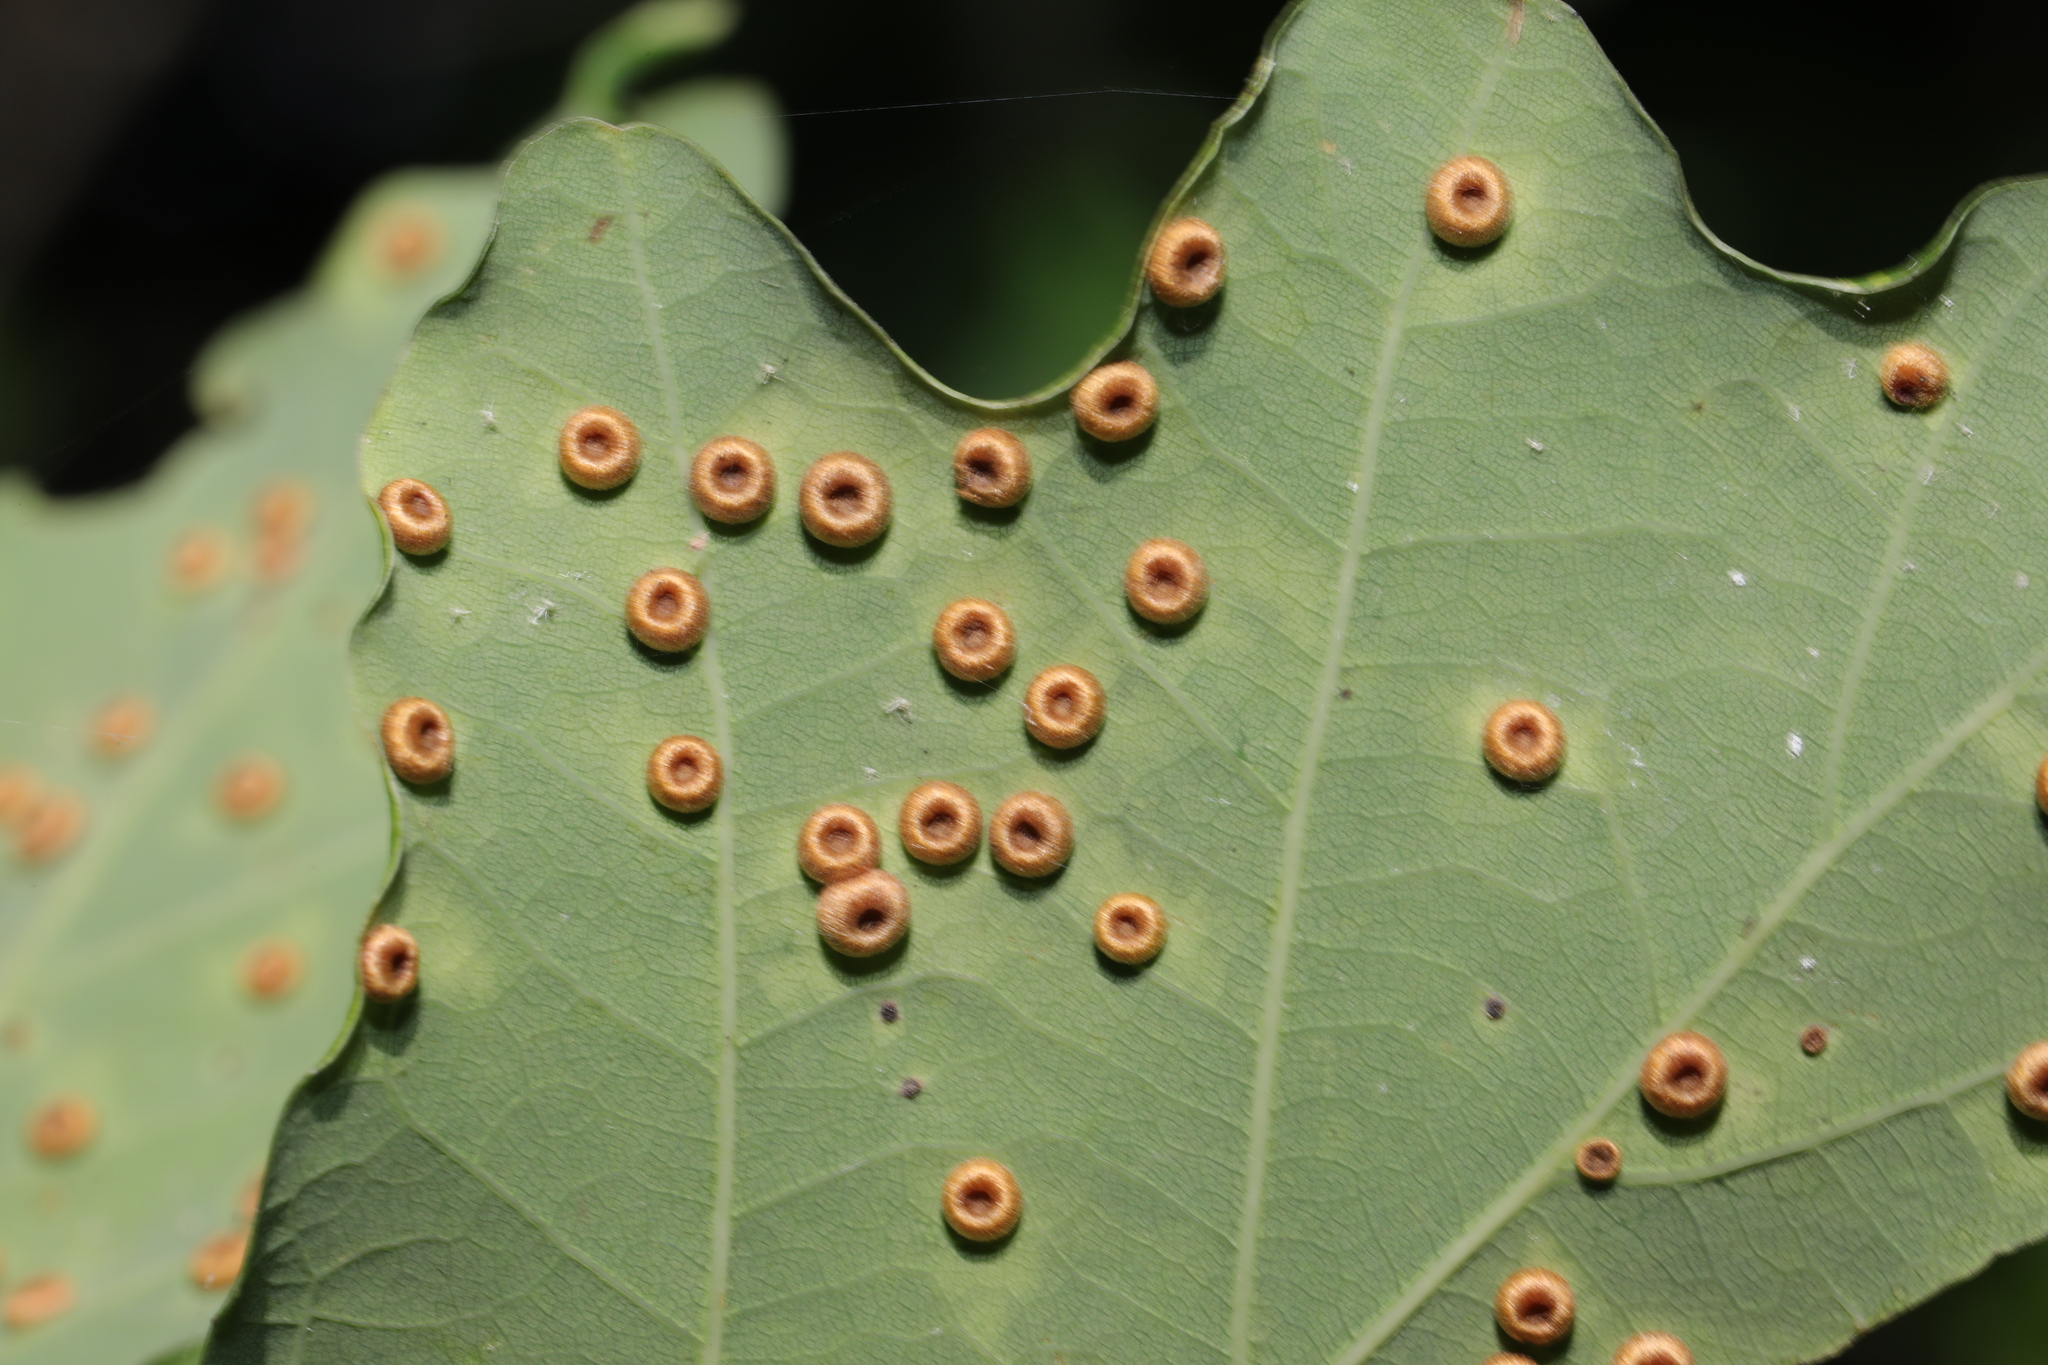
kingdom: Animalia
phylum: Arthropoda
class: Insecta
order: Hymenoptera
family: Cynipidae
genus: Neuroterus
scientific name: Neuroterus numismalis
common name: Silk-button spangle gall
